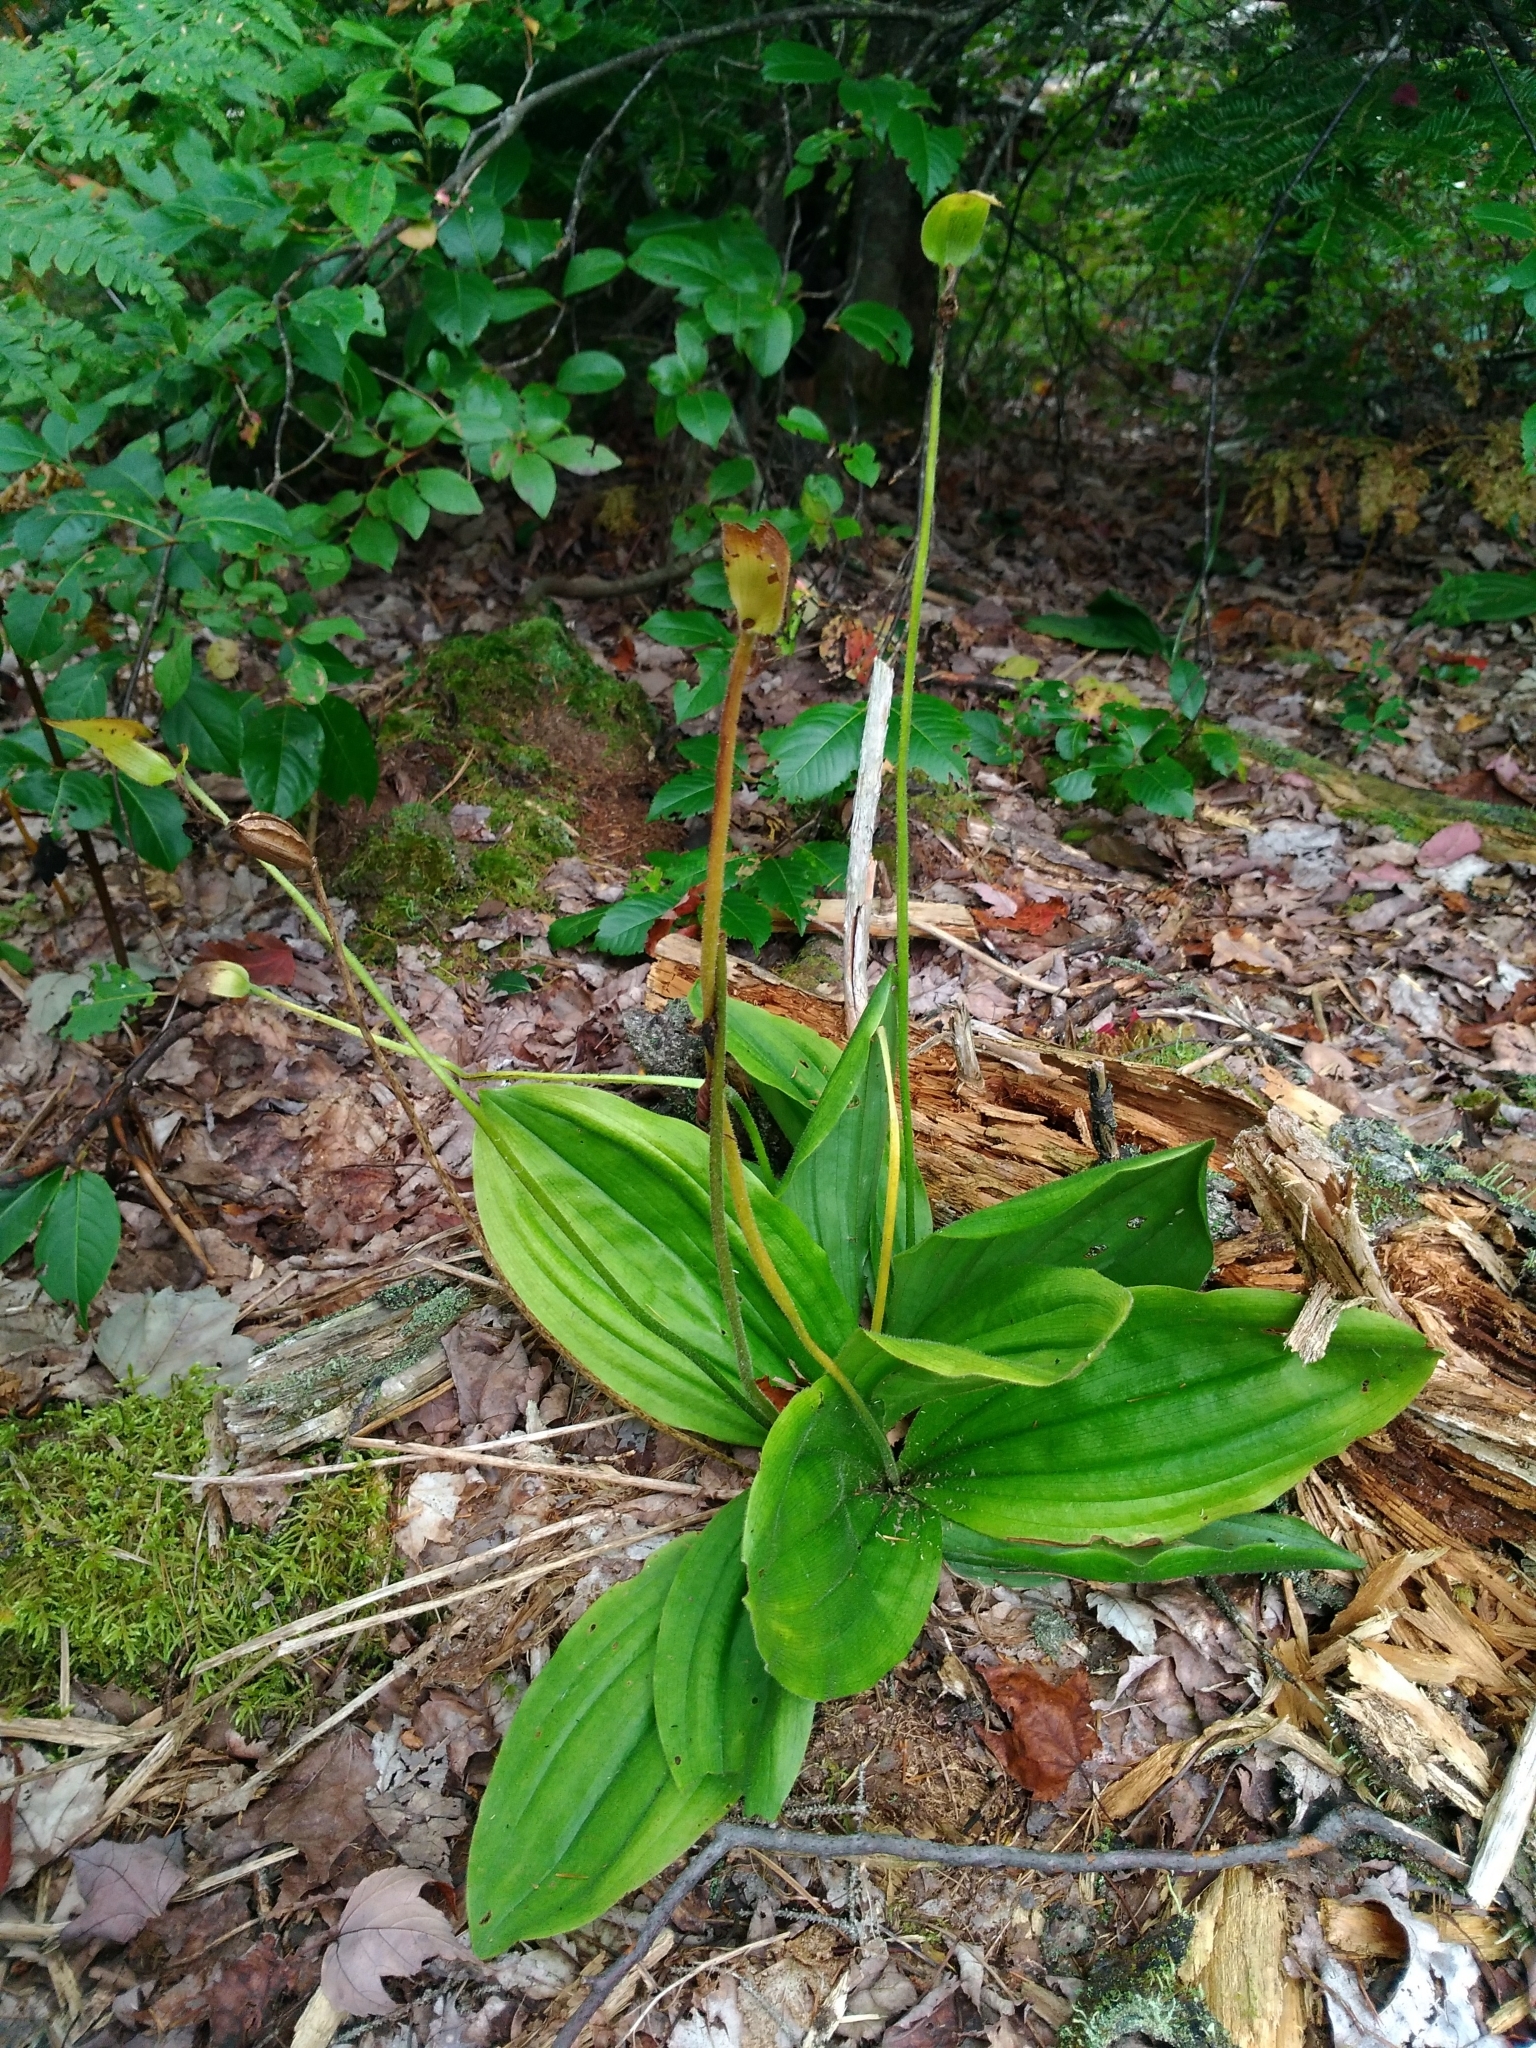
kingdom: Plantae
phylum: Tracheophyta
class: Liliopsida
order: Asparagales
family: Orchidaceae
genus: Cypripedium
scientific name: Cypripedium acaule
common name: Pink lady's-slipper
